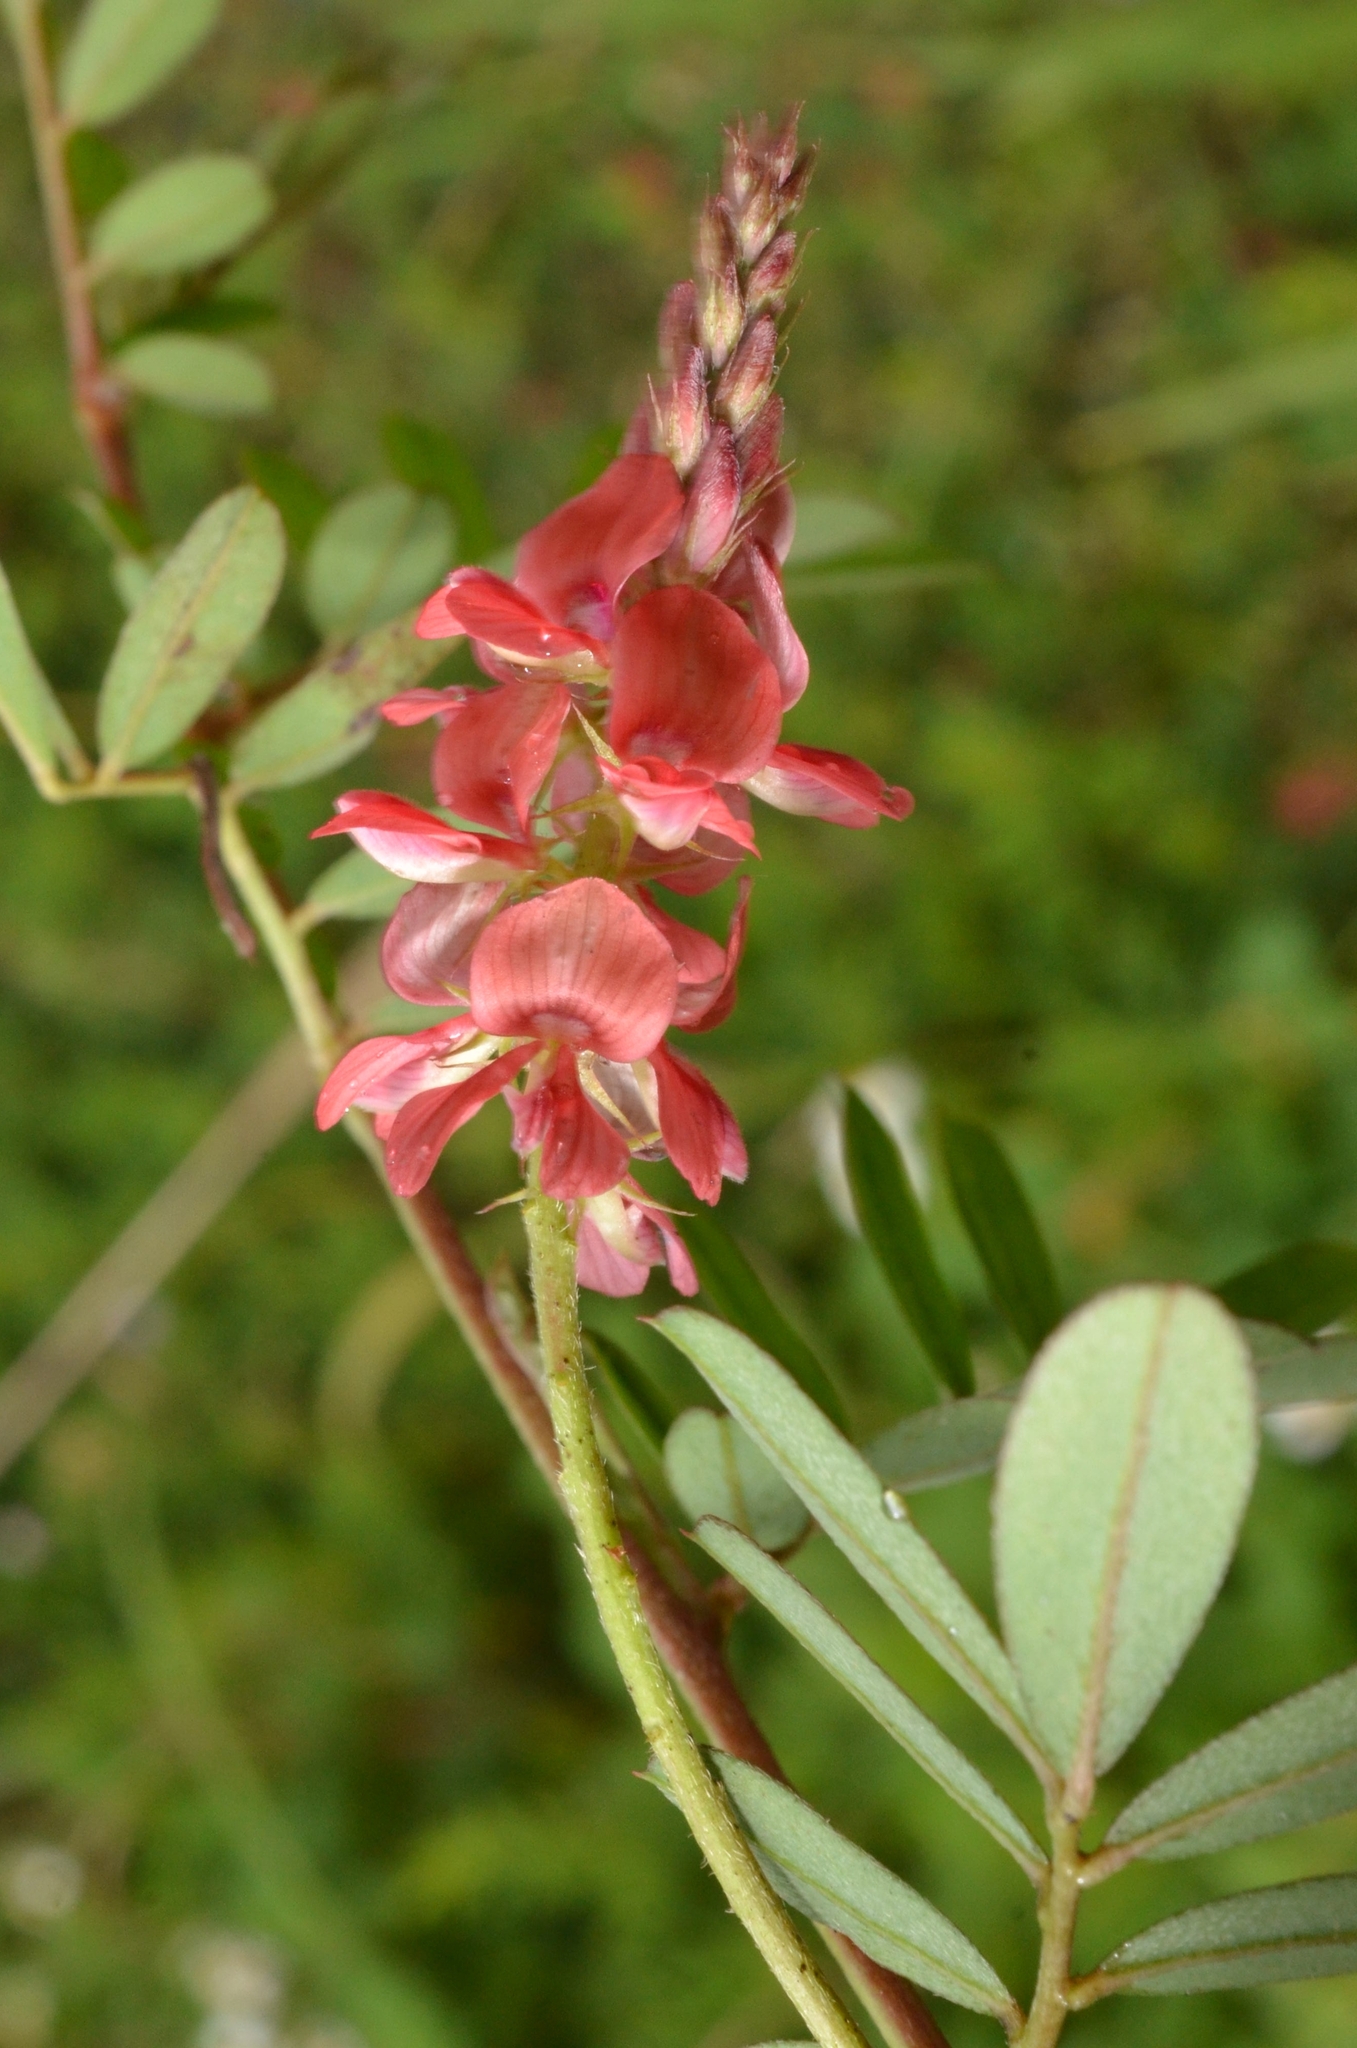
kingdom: Plantae
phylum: Tracheophyta
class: Magnoliopsida
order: Fabales
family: Fabaceae
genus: Indigofera
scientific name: Indigofera hendecaphylla
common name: Trailing indigo
